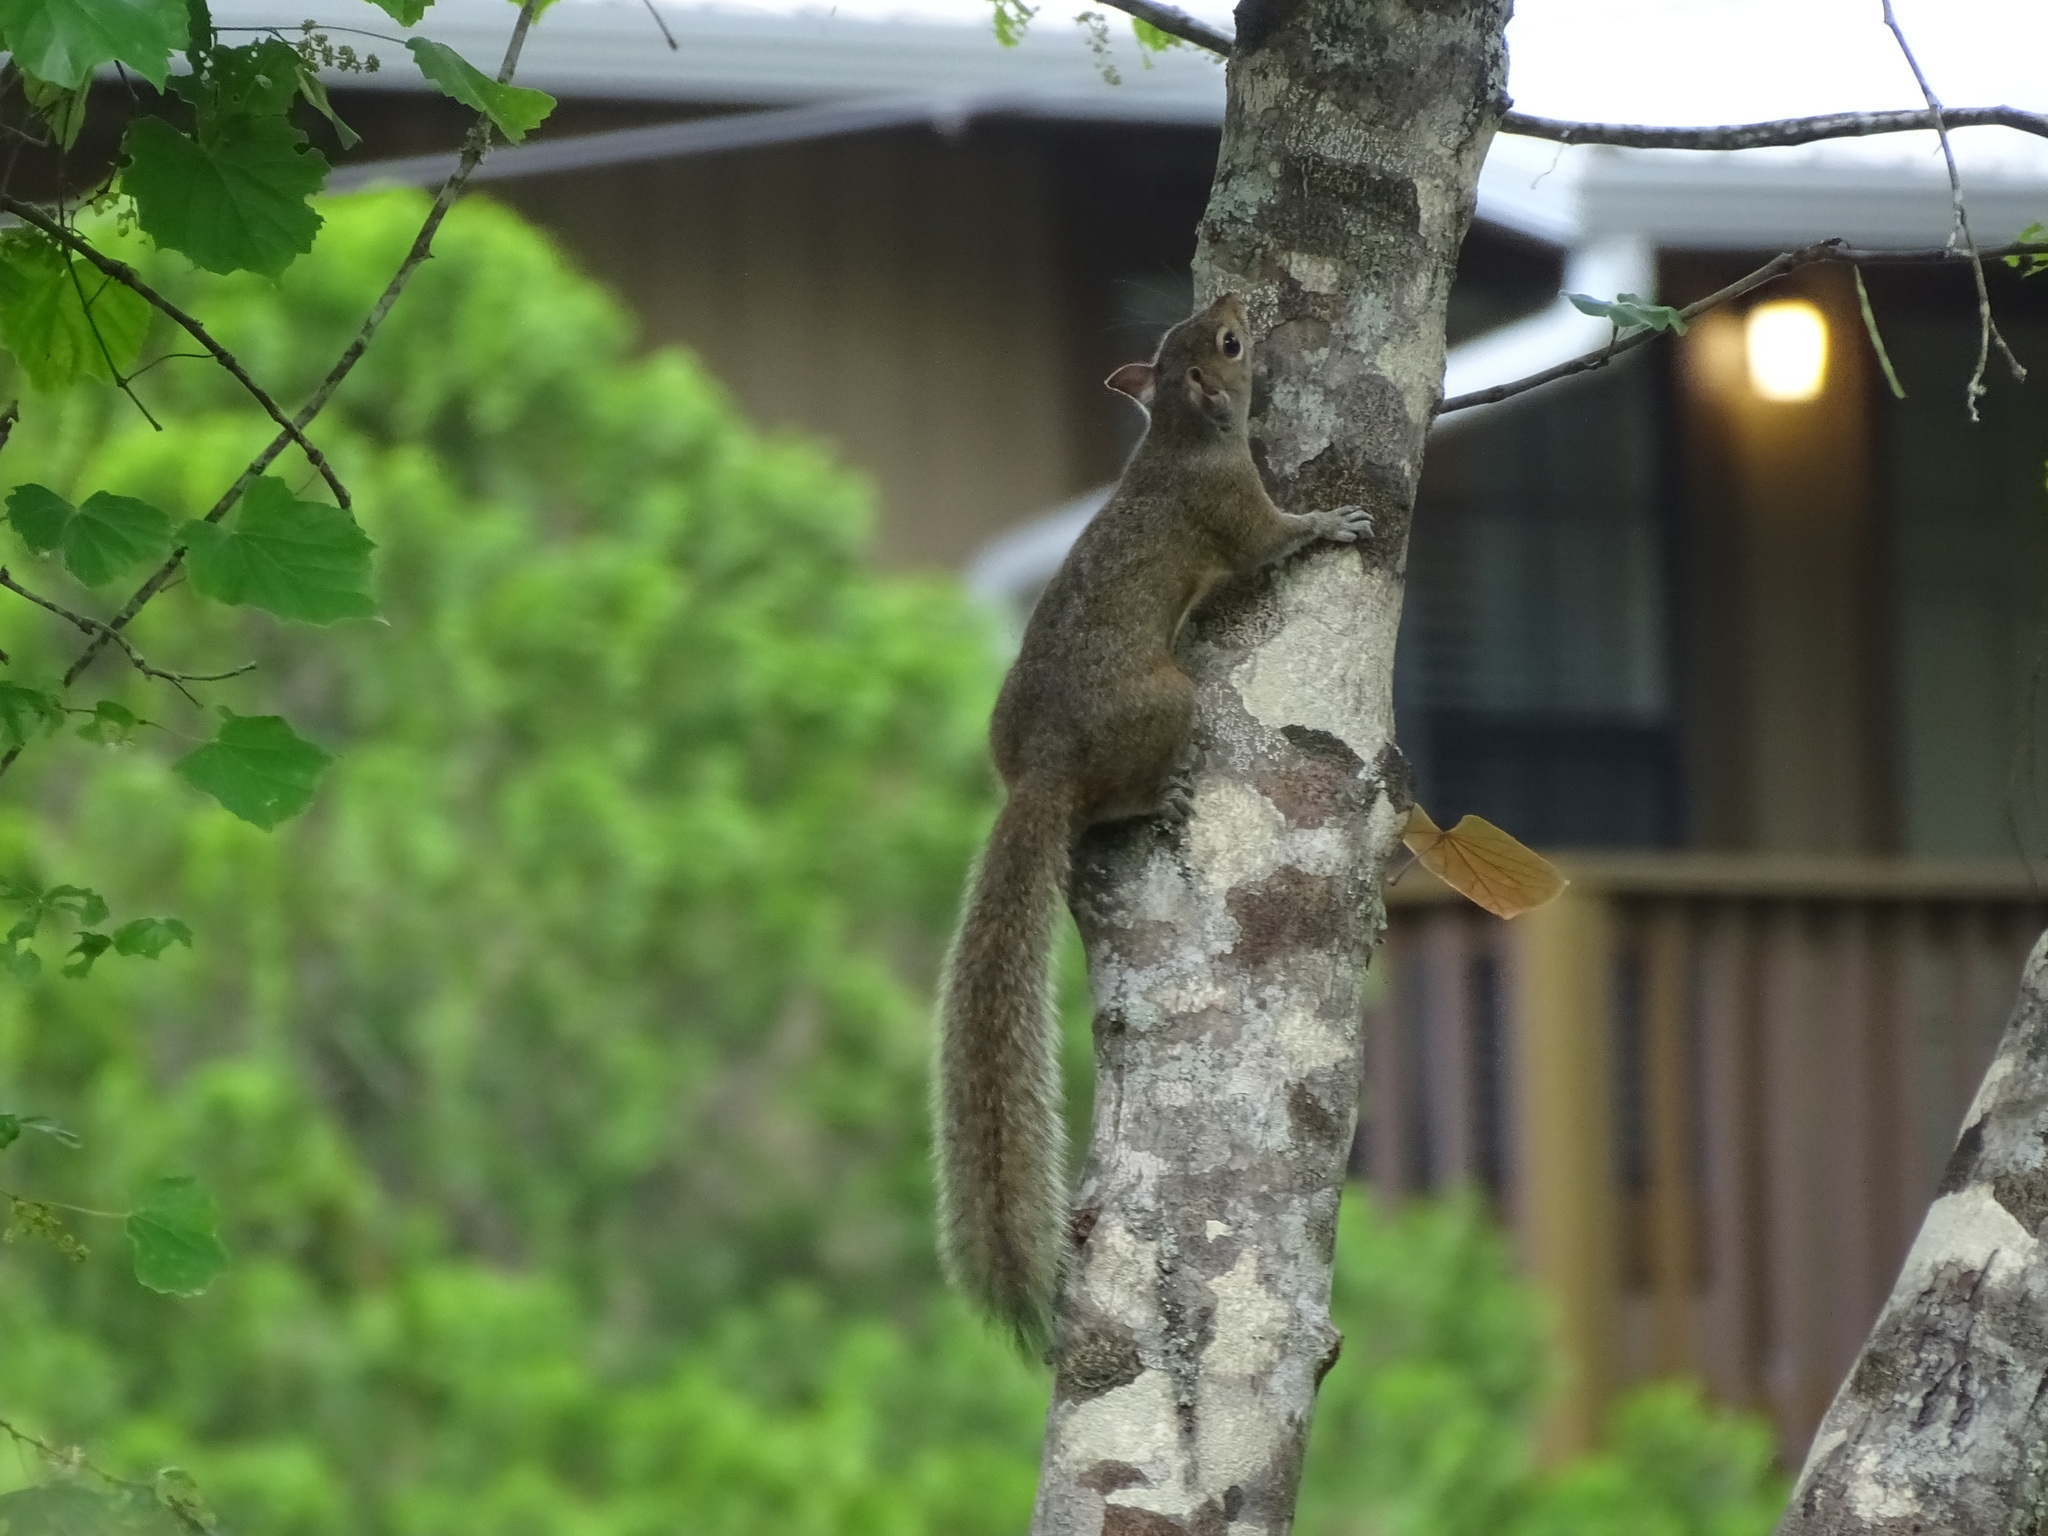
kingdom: Animalia
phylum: Chordata
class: Mammalia
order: Rodentia
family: Sciuridae
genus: Sciurus
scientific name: Sciurus carolinensis
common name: Eastern gray squirrel
